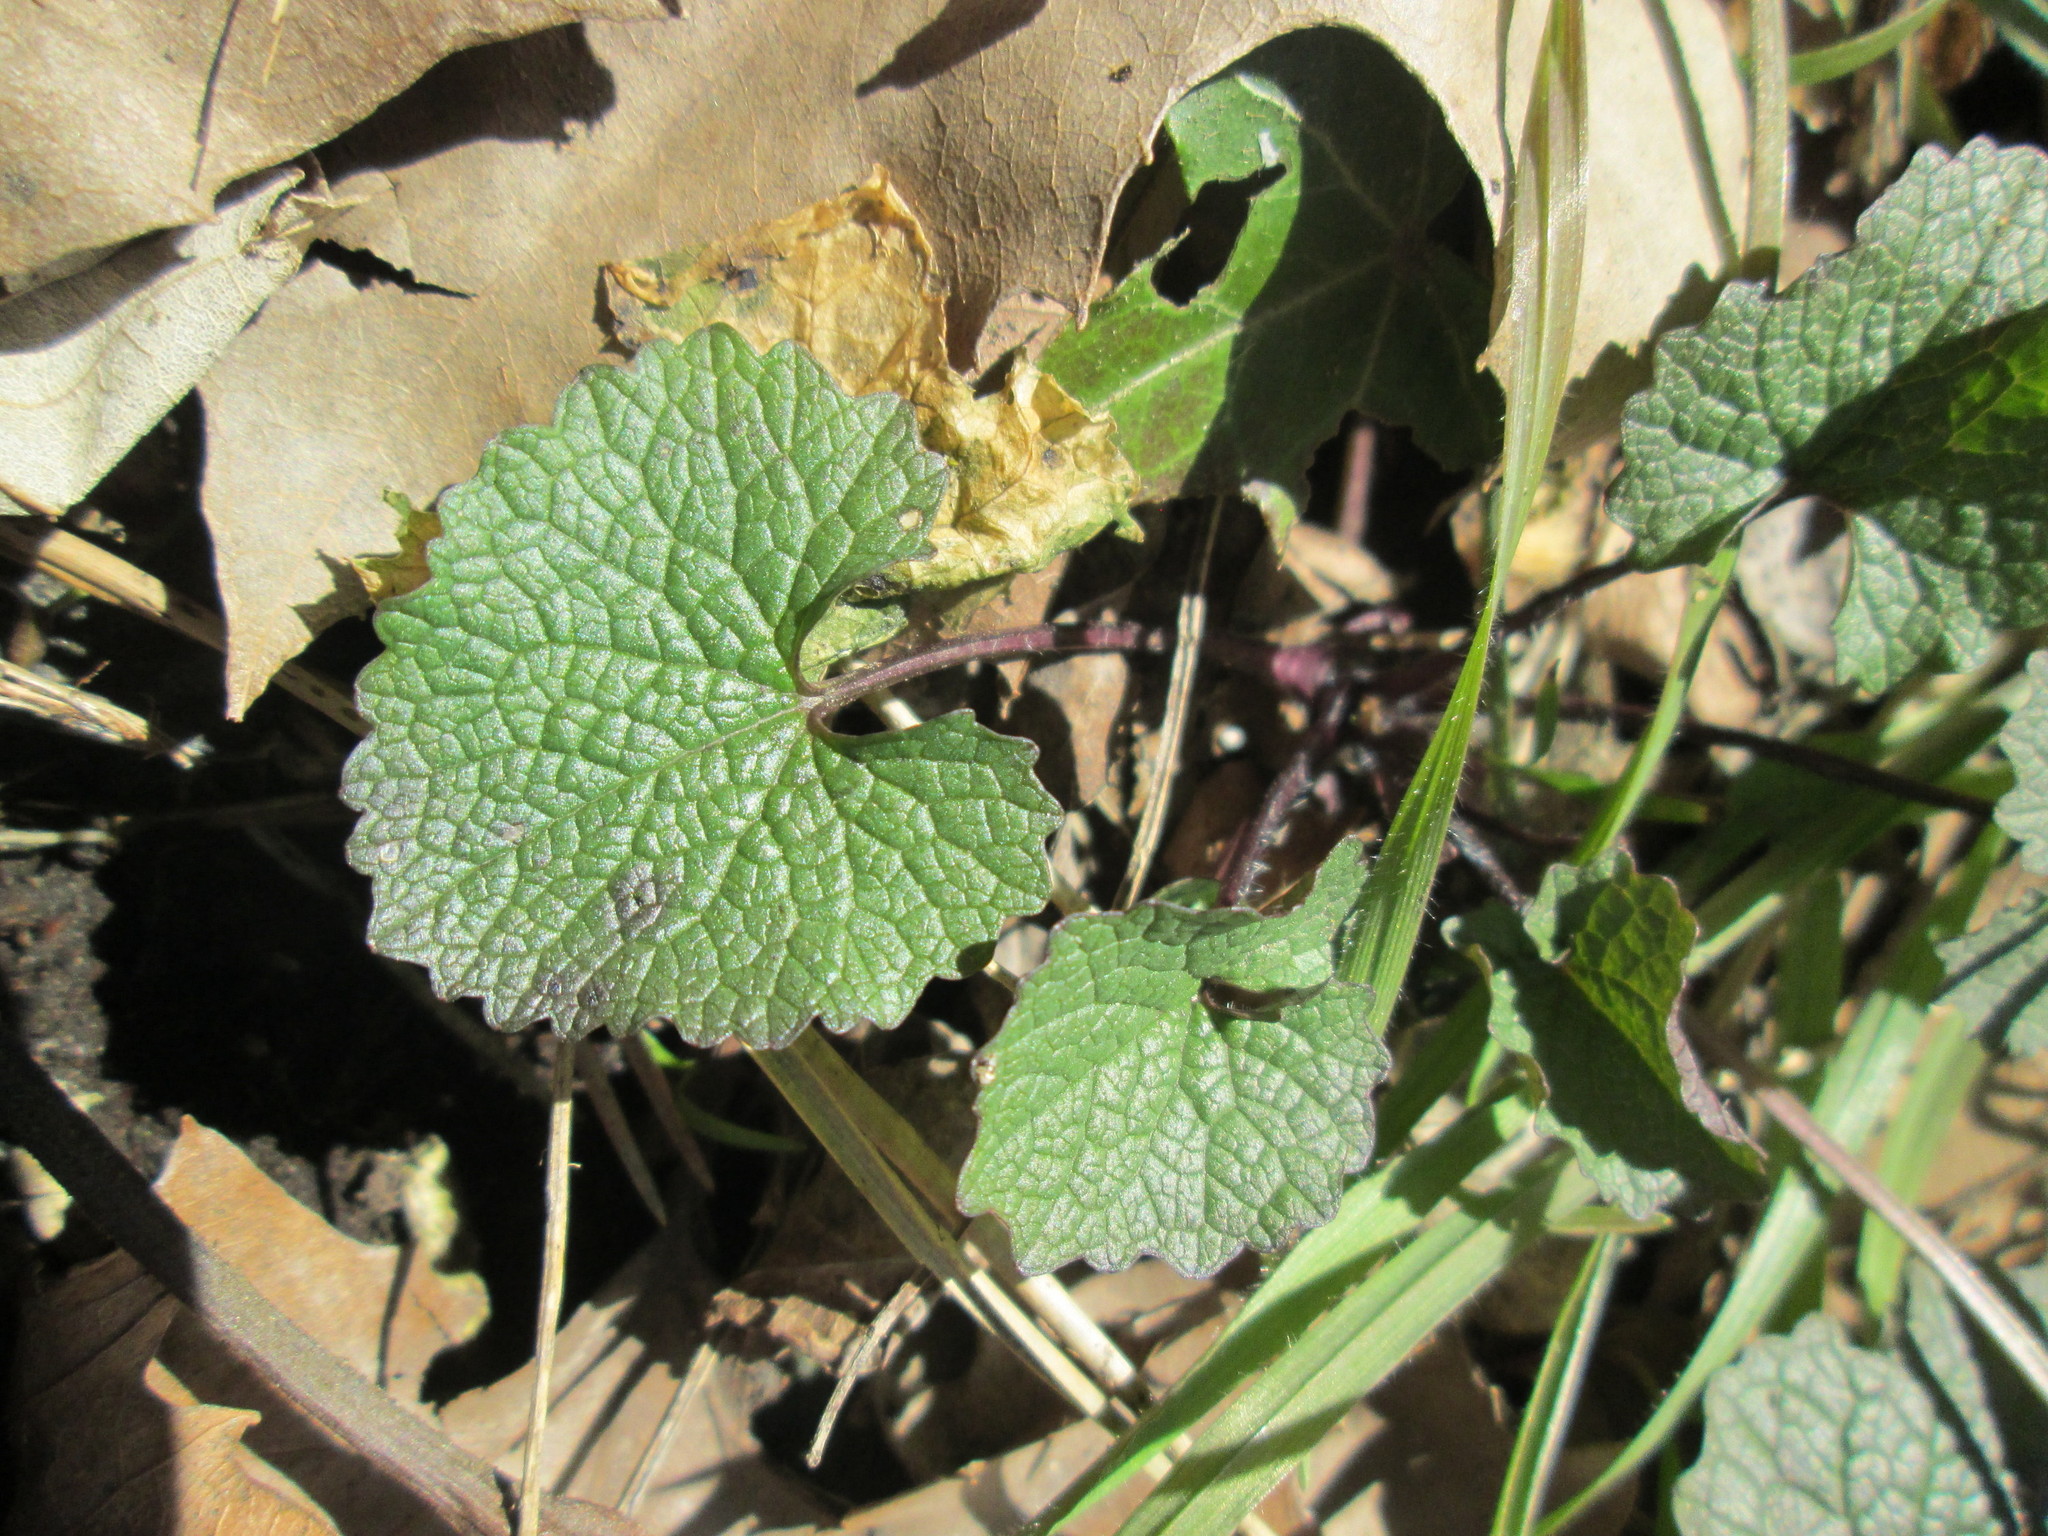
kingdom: Plantae
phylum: Tracheophyta
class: Magnoliopsida
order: Brassicales
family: Brassicaceae
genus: Alliaria
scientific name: Alliaria petiolata
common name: Garlic mustard
